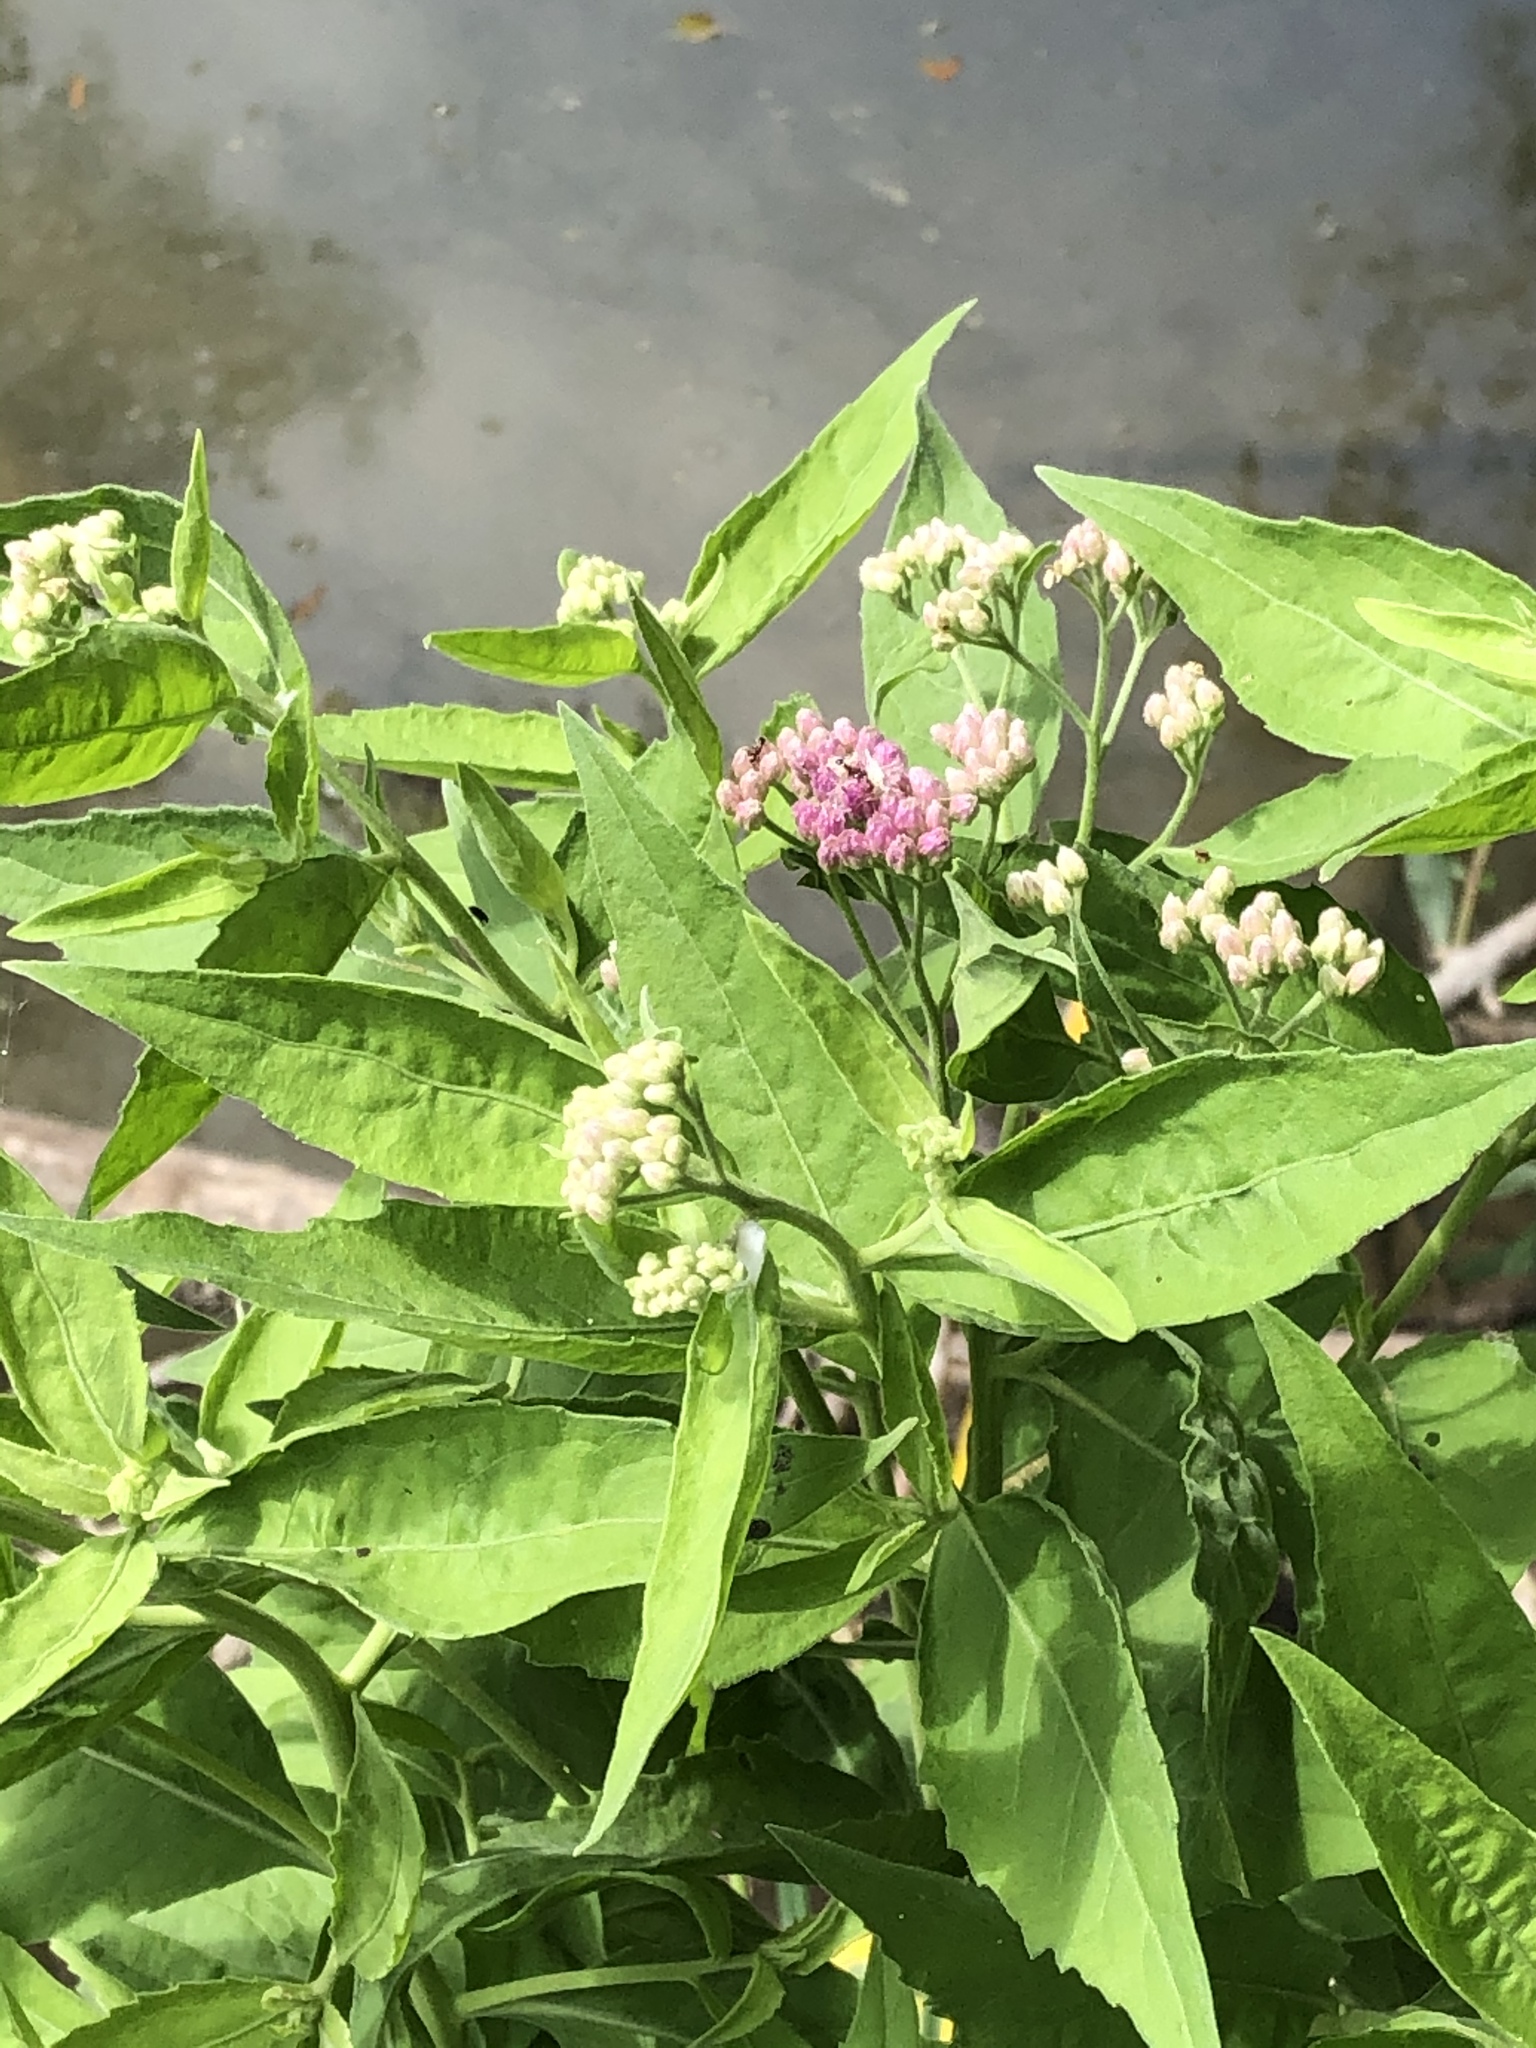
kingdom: Plantae
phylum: Tracheophyta
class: Magnoliopsida
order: Asterales
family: Asteraceae
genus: Pluchea
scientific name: Pluchea odorata
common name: Saltmarsh fleabane
